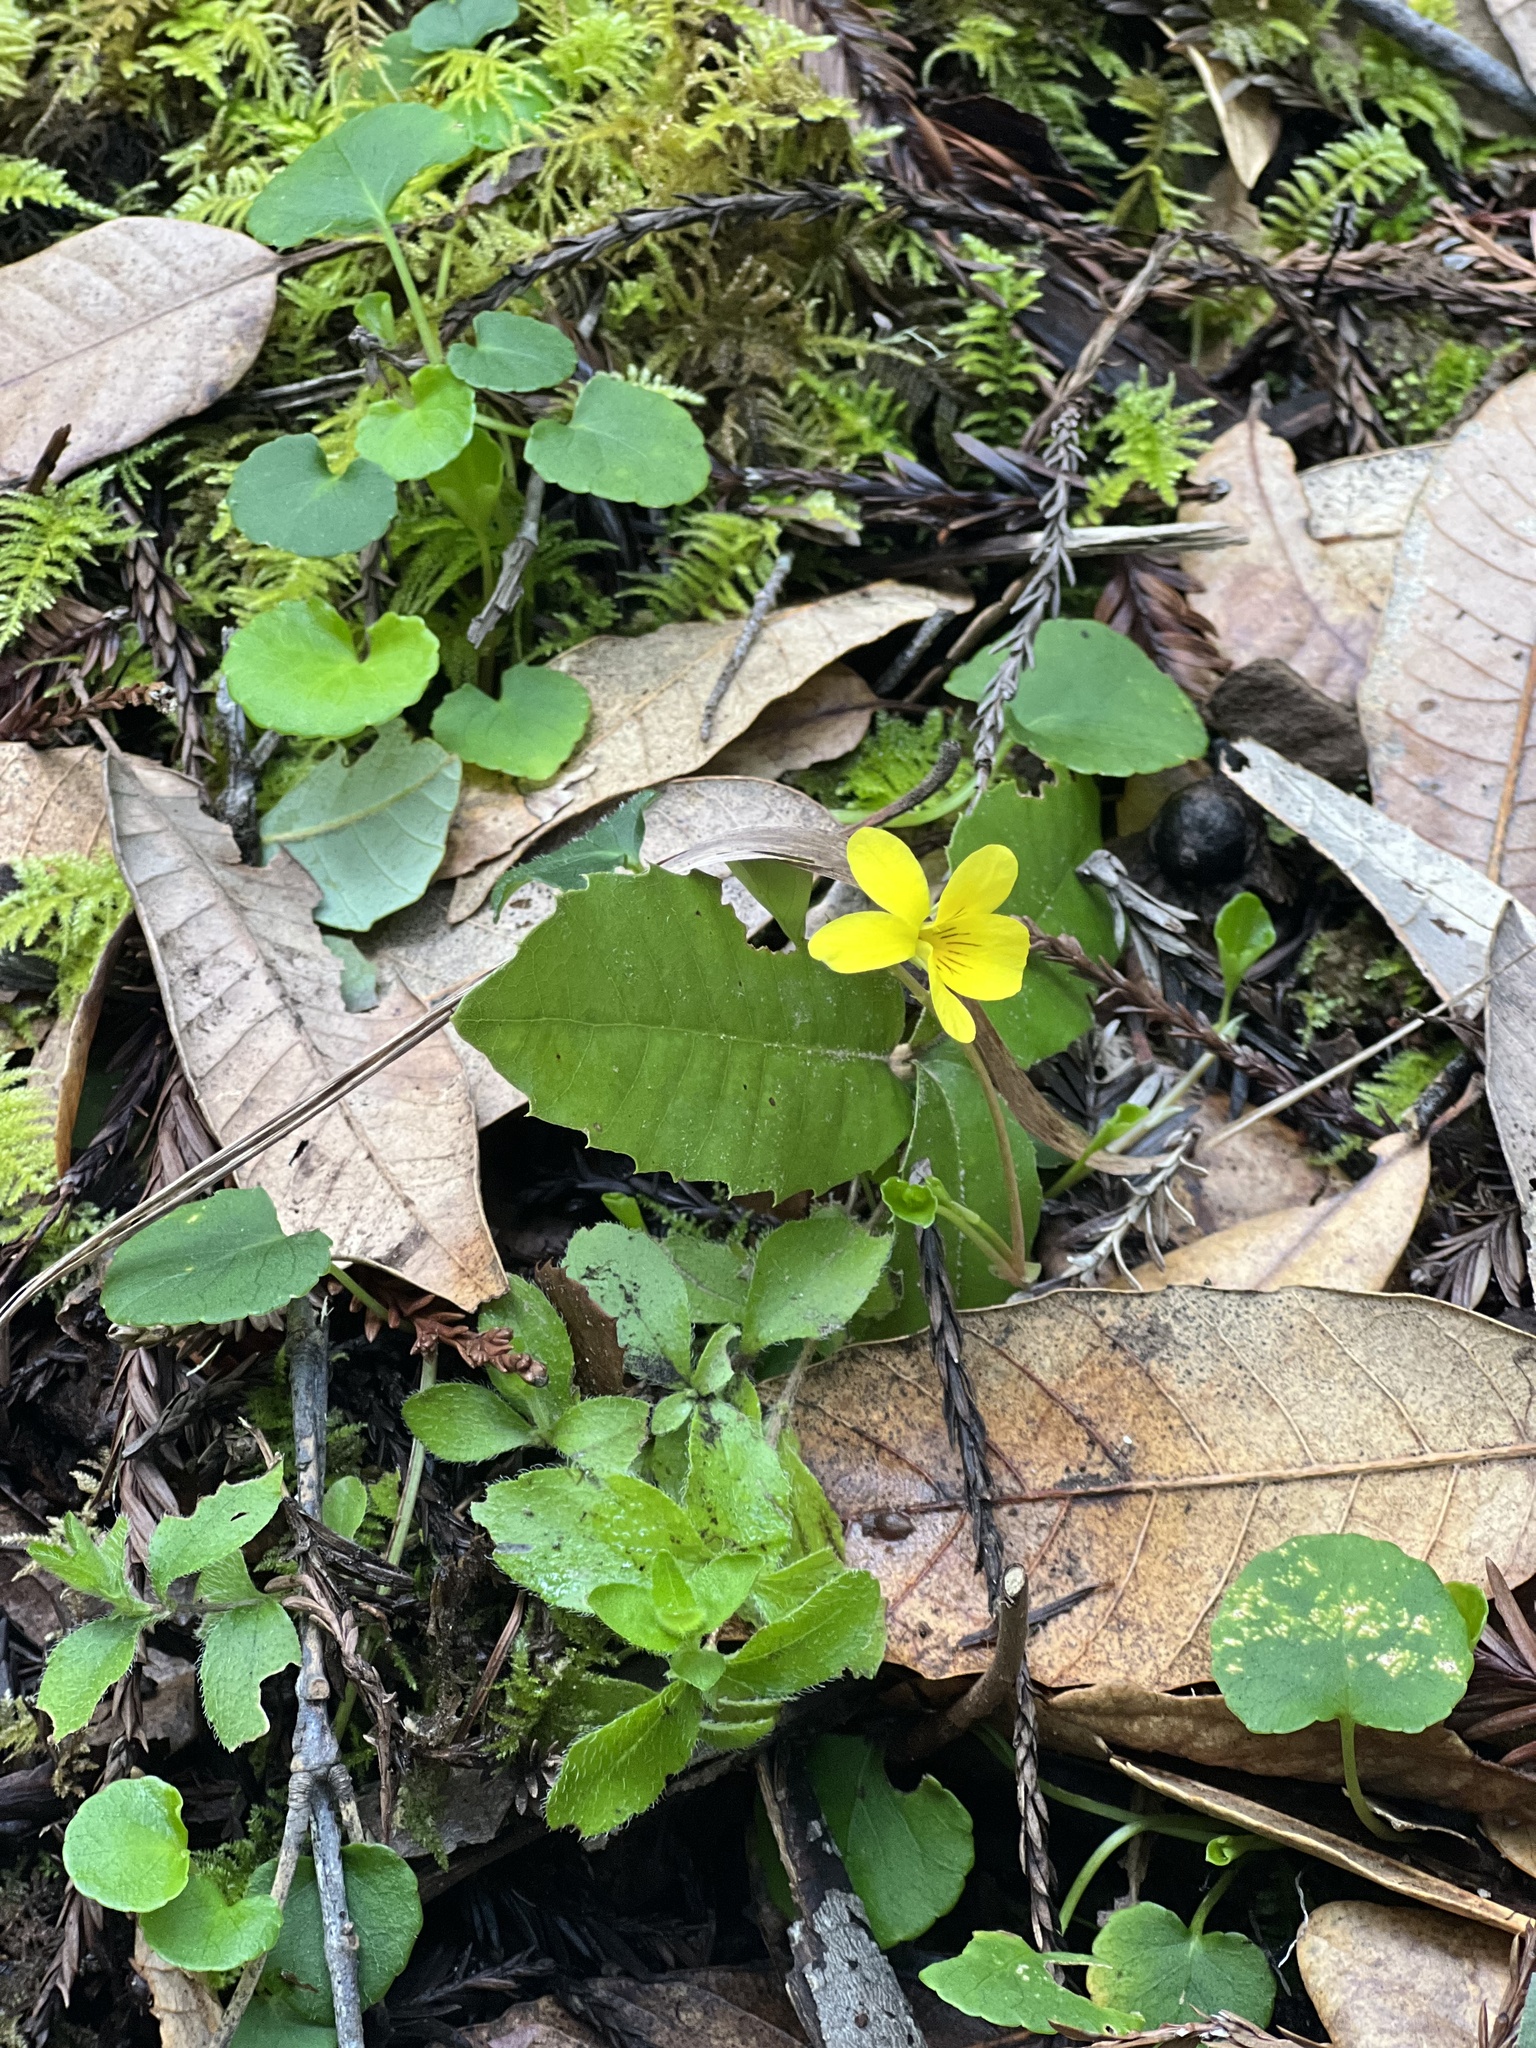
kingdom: Plantae
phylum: Tracheophyta
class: Magnoliopsida
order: Malpighiales
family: Violaceae
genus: Viola
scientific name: Viola sempervirens
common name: Evergreen violet
